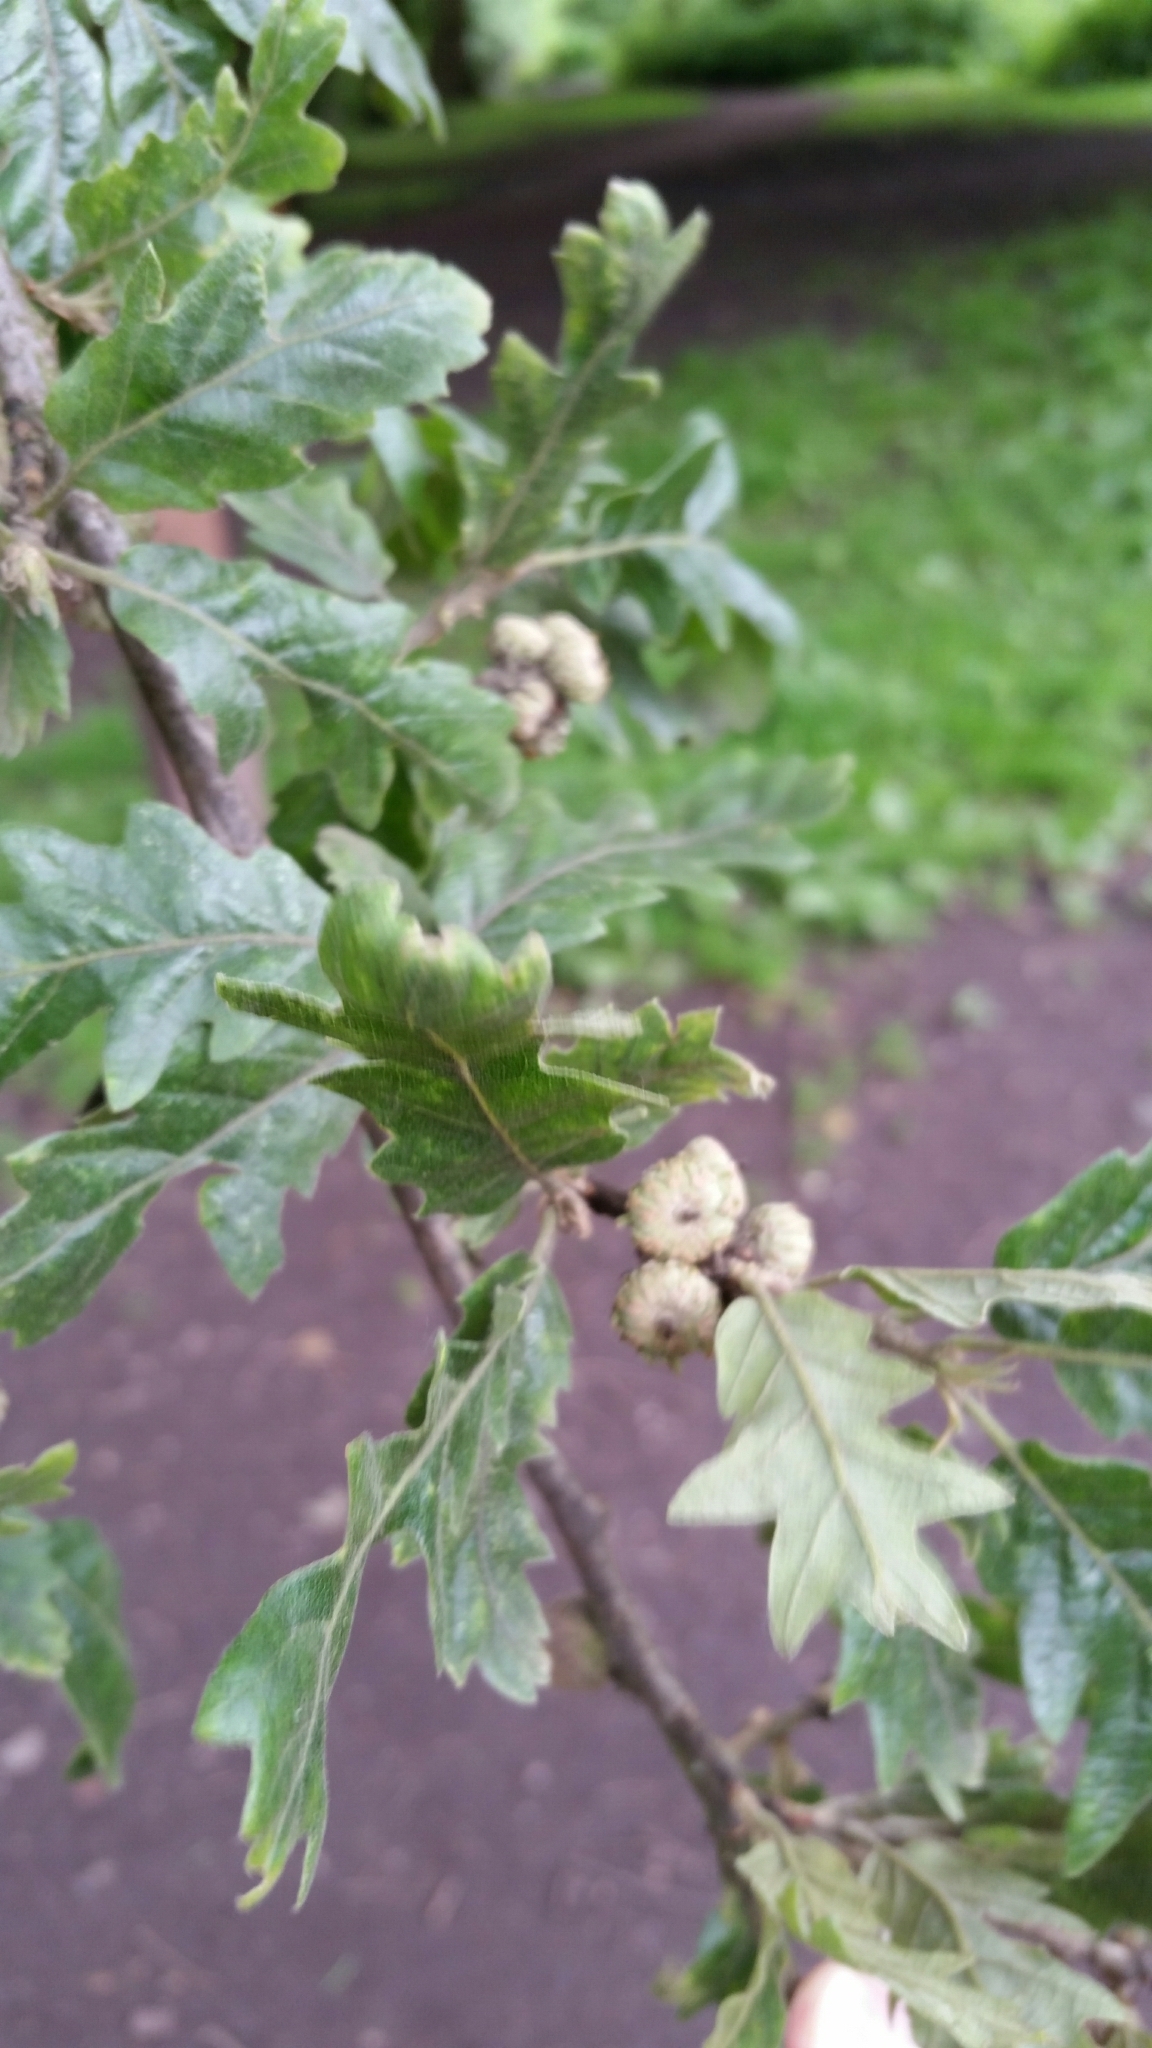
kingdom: Plantae
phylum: Tracheophyta
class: Magnoliopsida
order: Fagales
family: Fagaceae
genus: Quercus
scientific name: Quercus cerris
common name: Turkey oak
